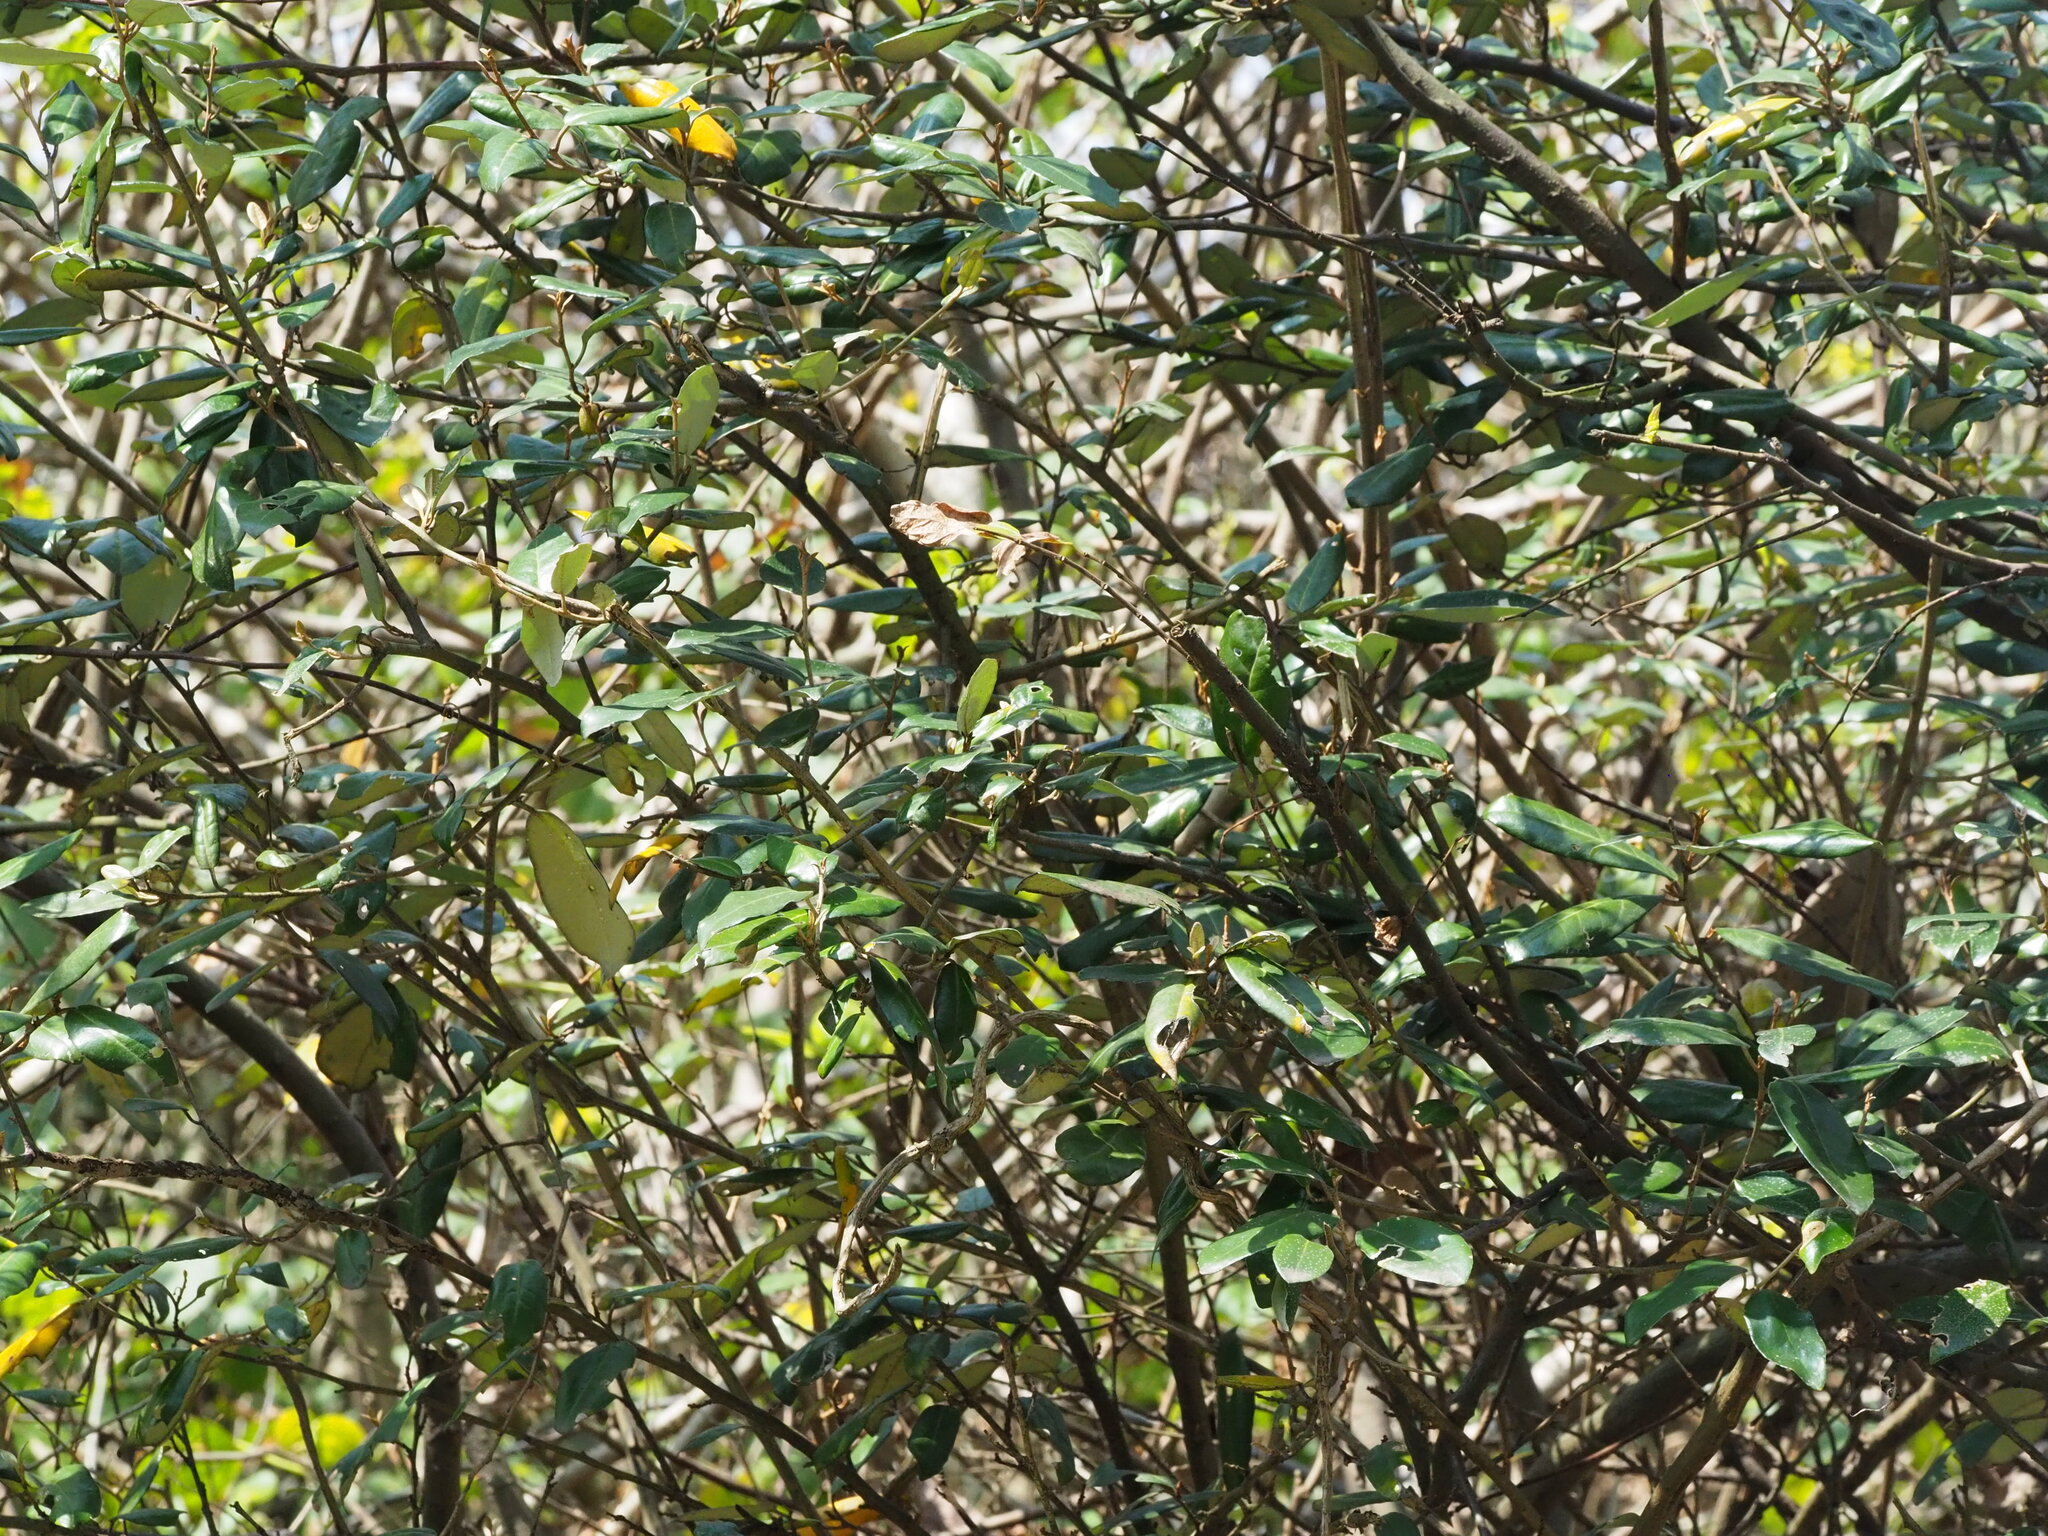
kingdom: Plantae
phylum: Tracheophyta
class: Magnoliopsida
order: Rosales
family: Elaeagnaceae
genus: Elaeagnus
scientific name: Elaeagnus formosana
